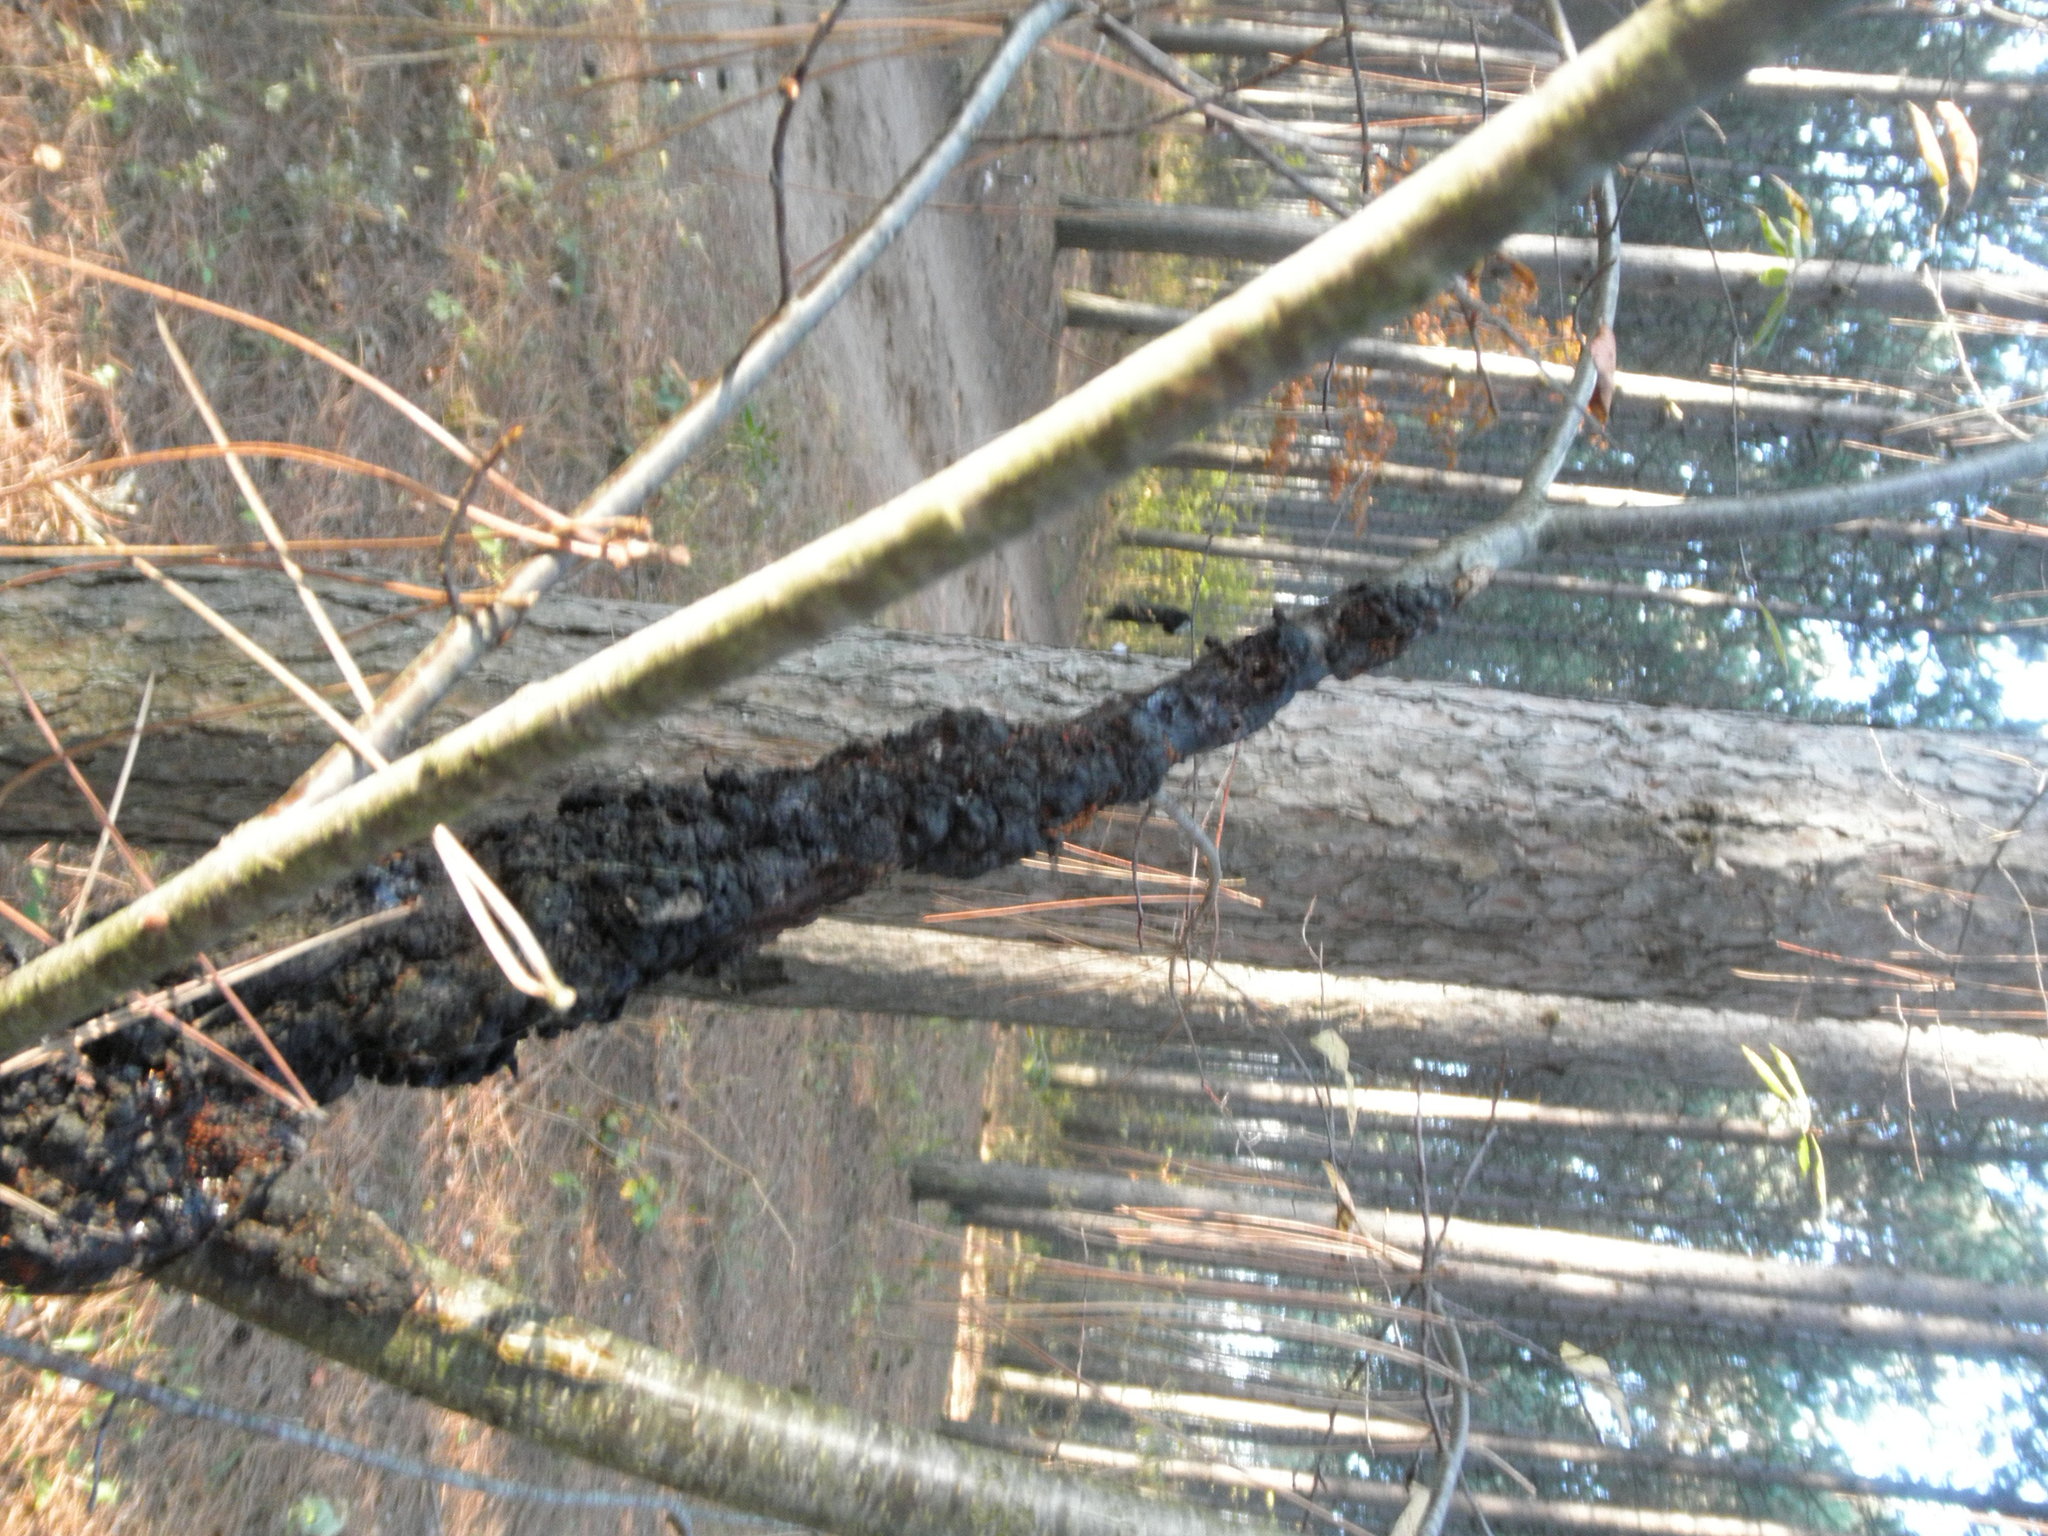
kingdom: Fungi
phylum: Ascomycota
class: Dothideomycetes
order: Venturiales
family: Venturiaceae
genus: Apiosporina
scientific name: Apiosporina morbosa
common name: Black knot
